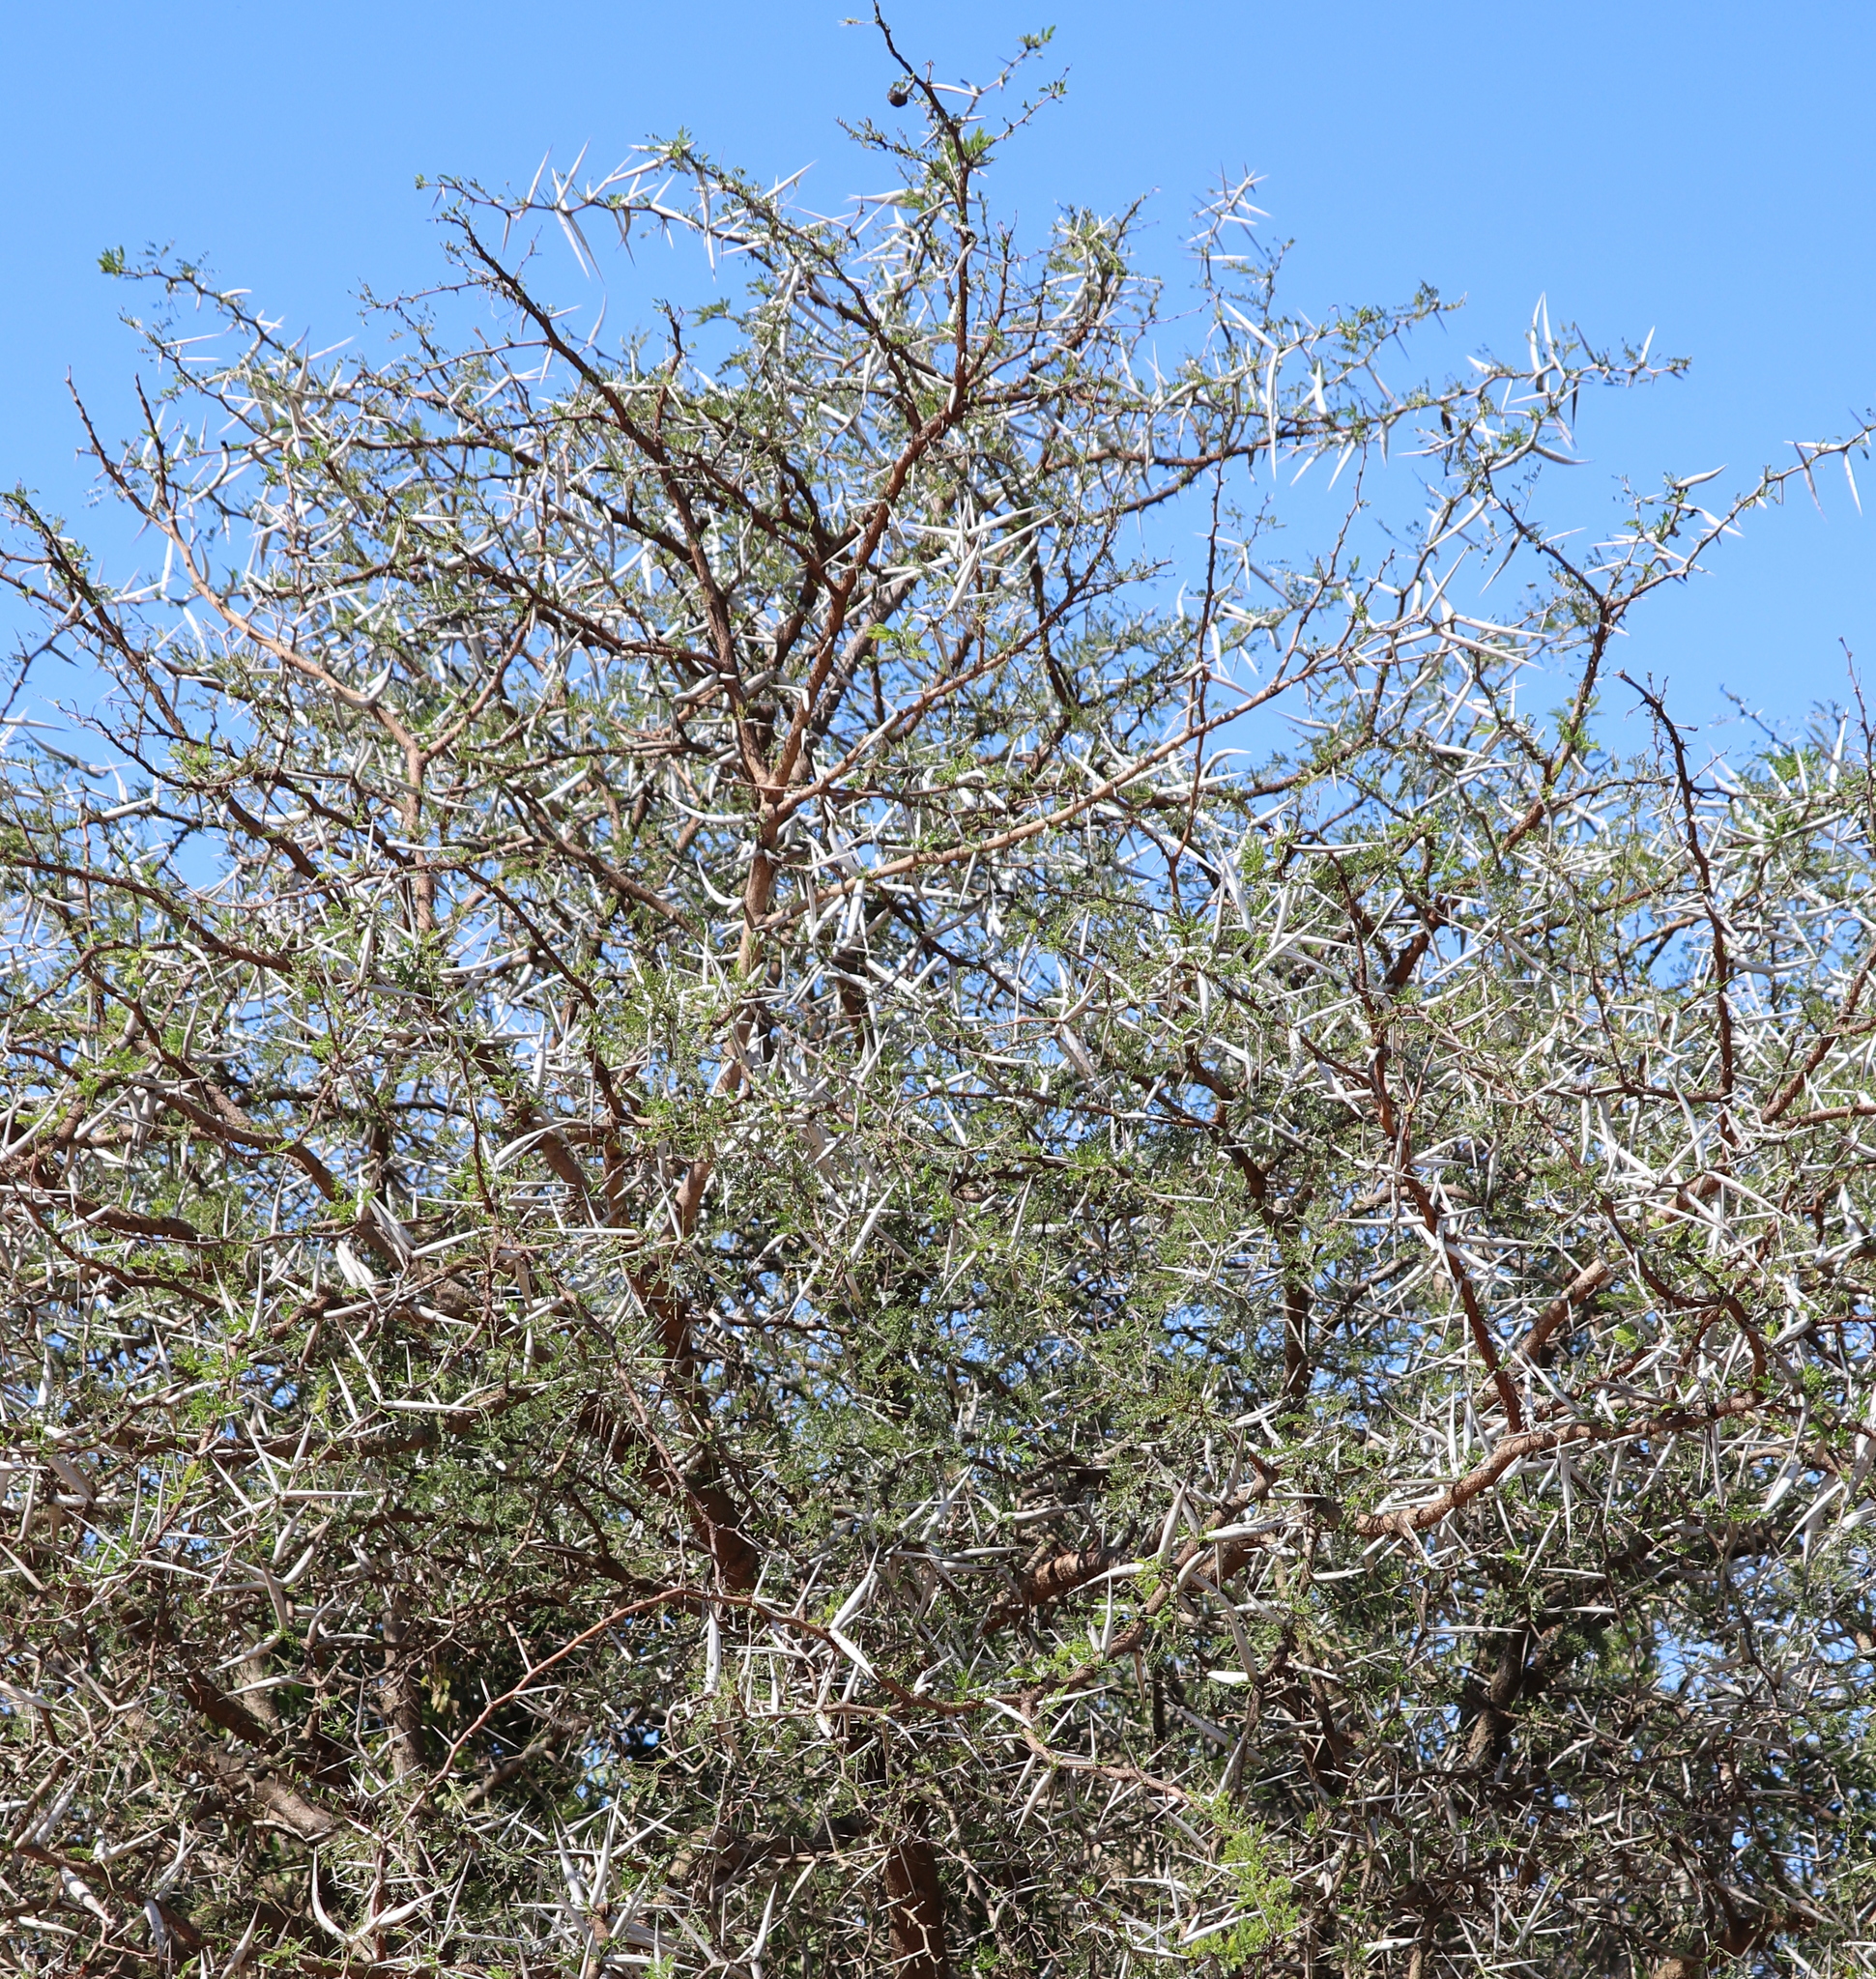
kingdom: Plantae
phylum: Tracheophyta
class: Magnoliopsida
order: Fabales
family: Fabaceae
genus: Vachellia
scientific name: Vachellia karroo
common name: Sweet thorn
